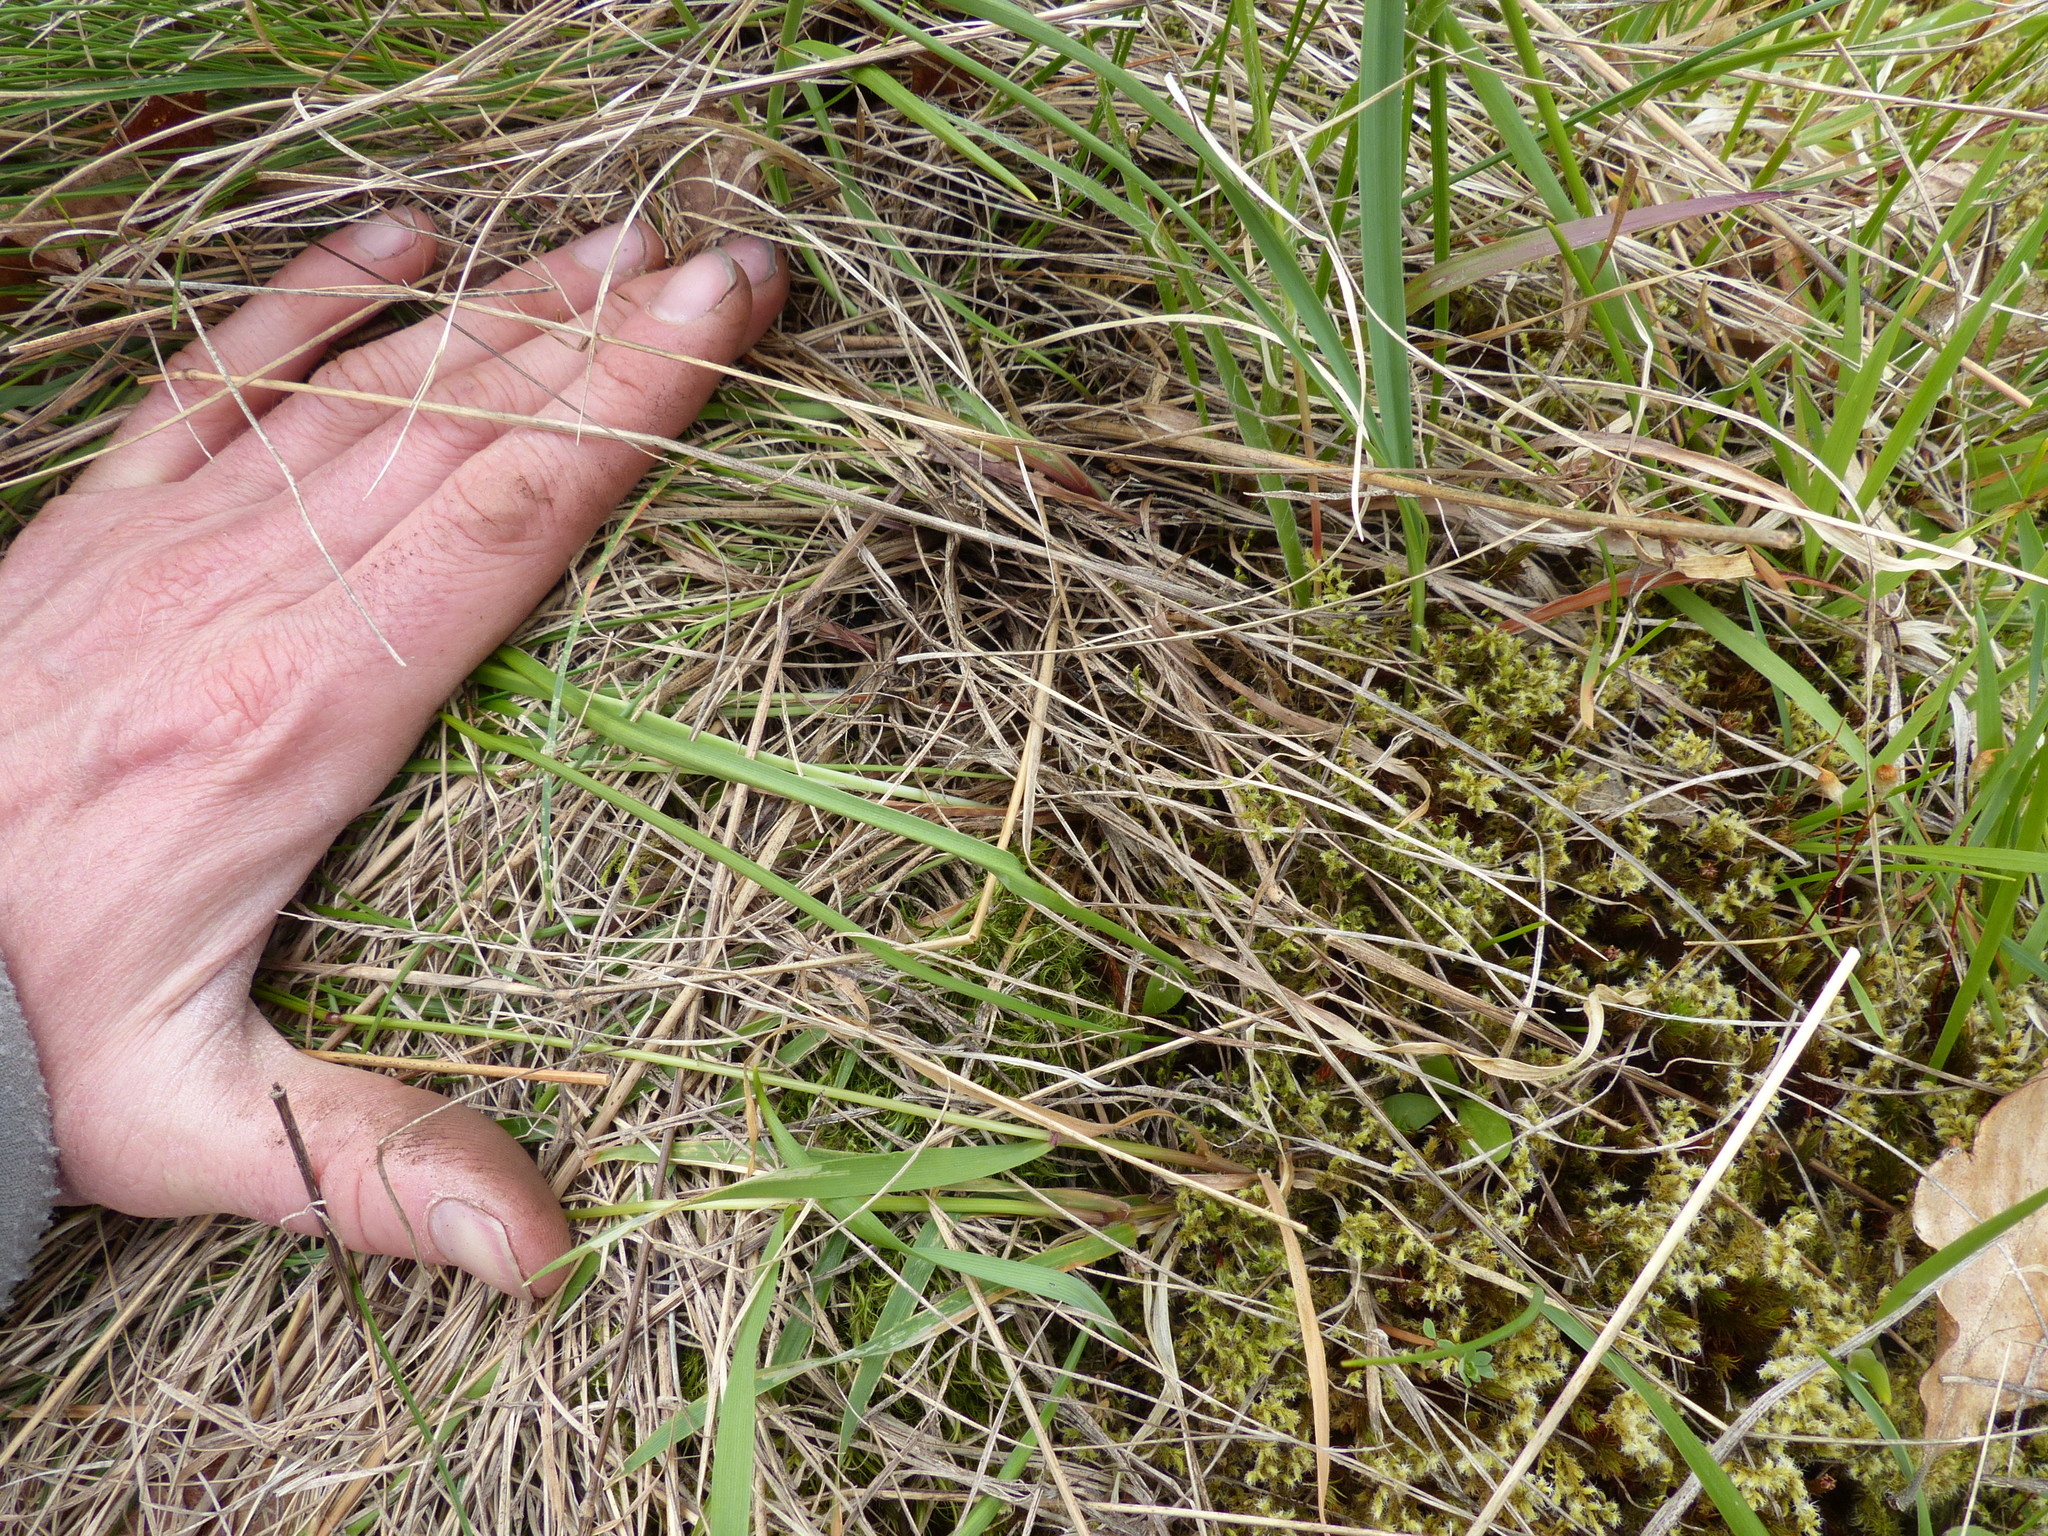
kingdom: Plantae
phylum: Tracheophyta
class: Liliopsida
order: Poales
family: Poaceae
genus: Festuca
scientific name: Festuca idahoensis
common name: Idaho fescue
